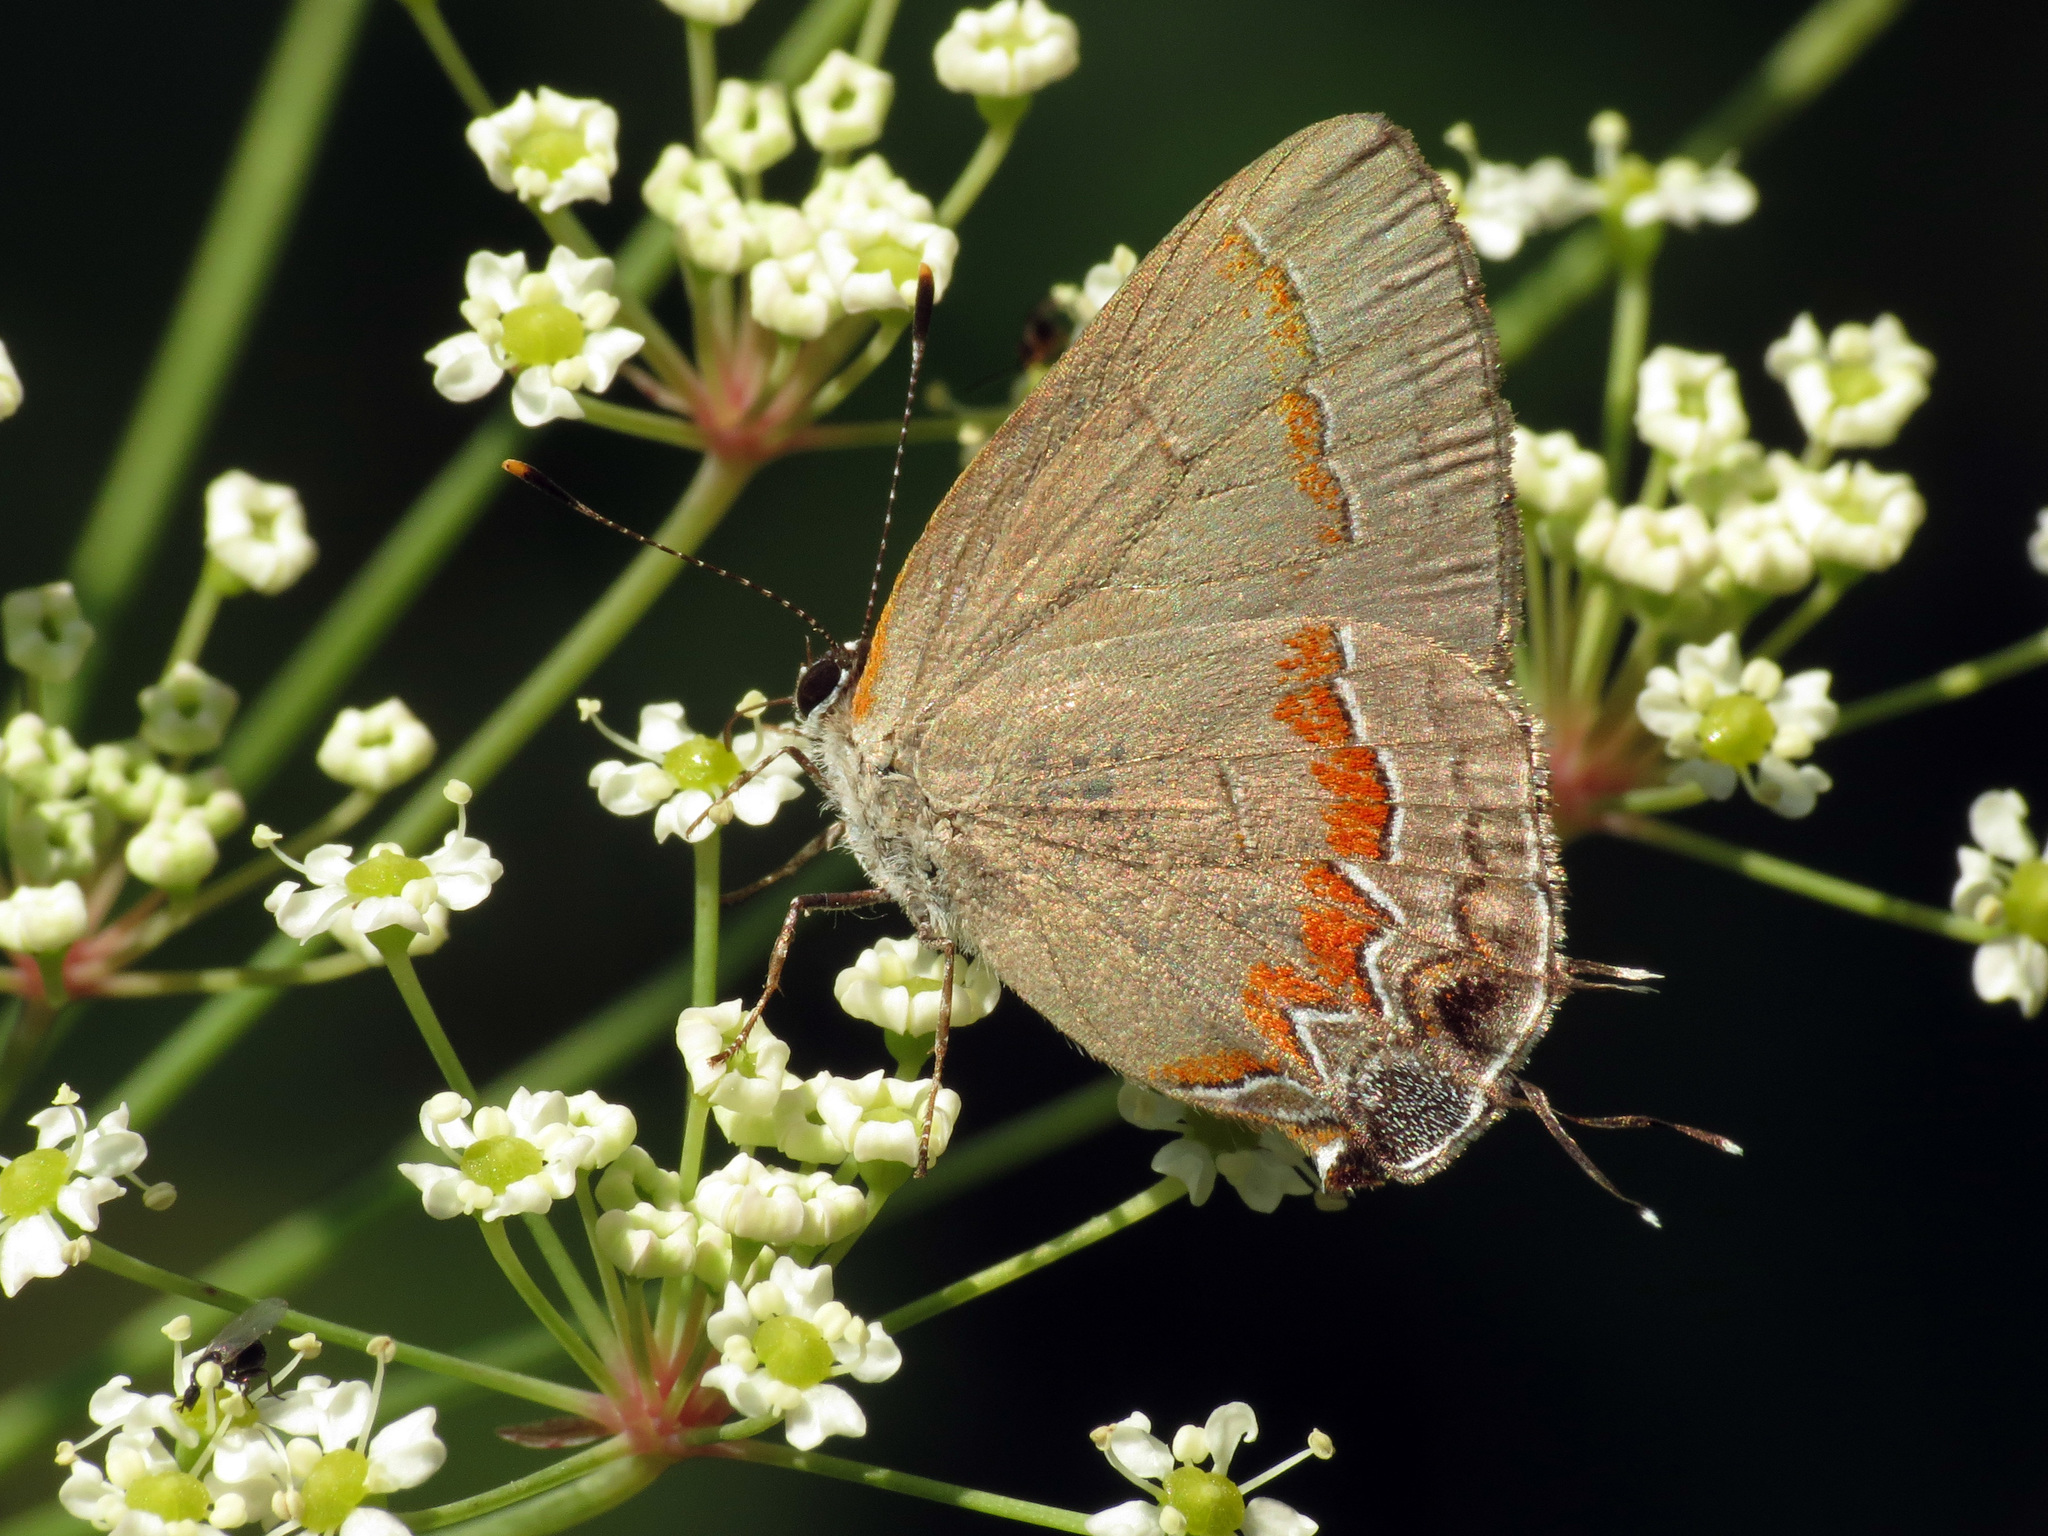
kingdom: Animalia
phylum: Arthropoda
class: Insecta
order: Lepidoptera
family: Lycaenidae
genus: Calycopis
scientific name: Calycopis cecrops
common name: Red-banded hairstreak
